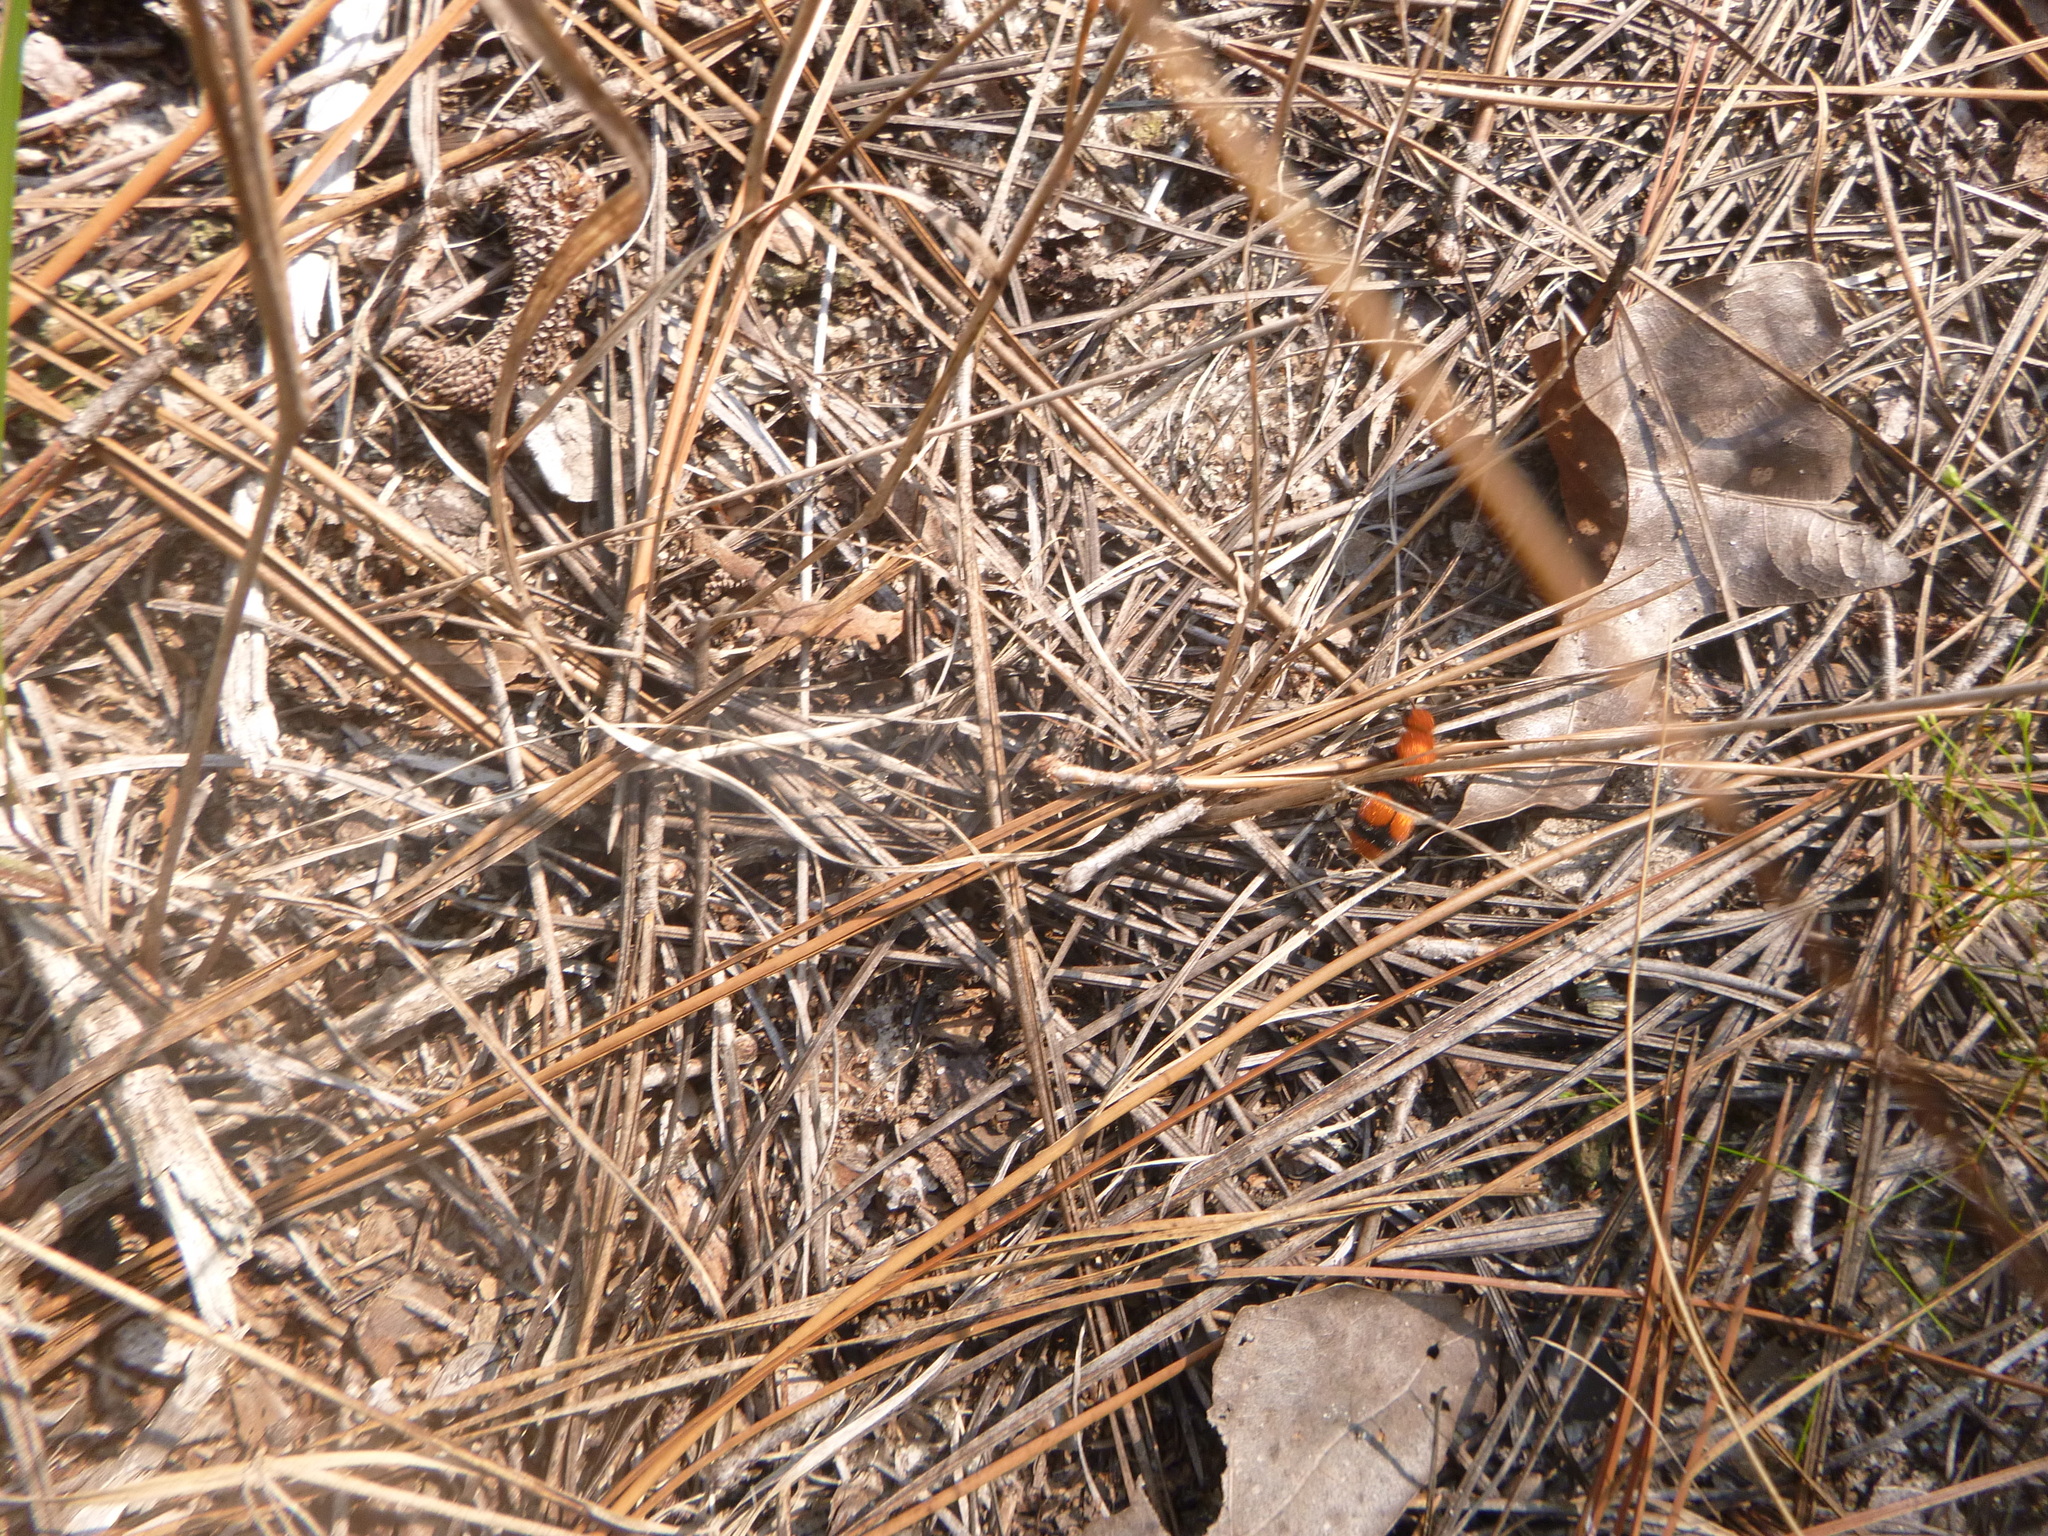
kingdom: Animalia
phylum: Arthropoda
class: Insecta
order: Hymenoptera
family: Mutillidae
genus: Dasymutilla
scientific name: Dasymutilla occidentalis
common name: Common eastern velvet ant
